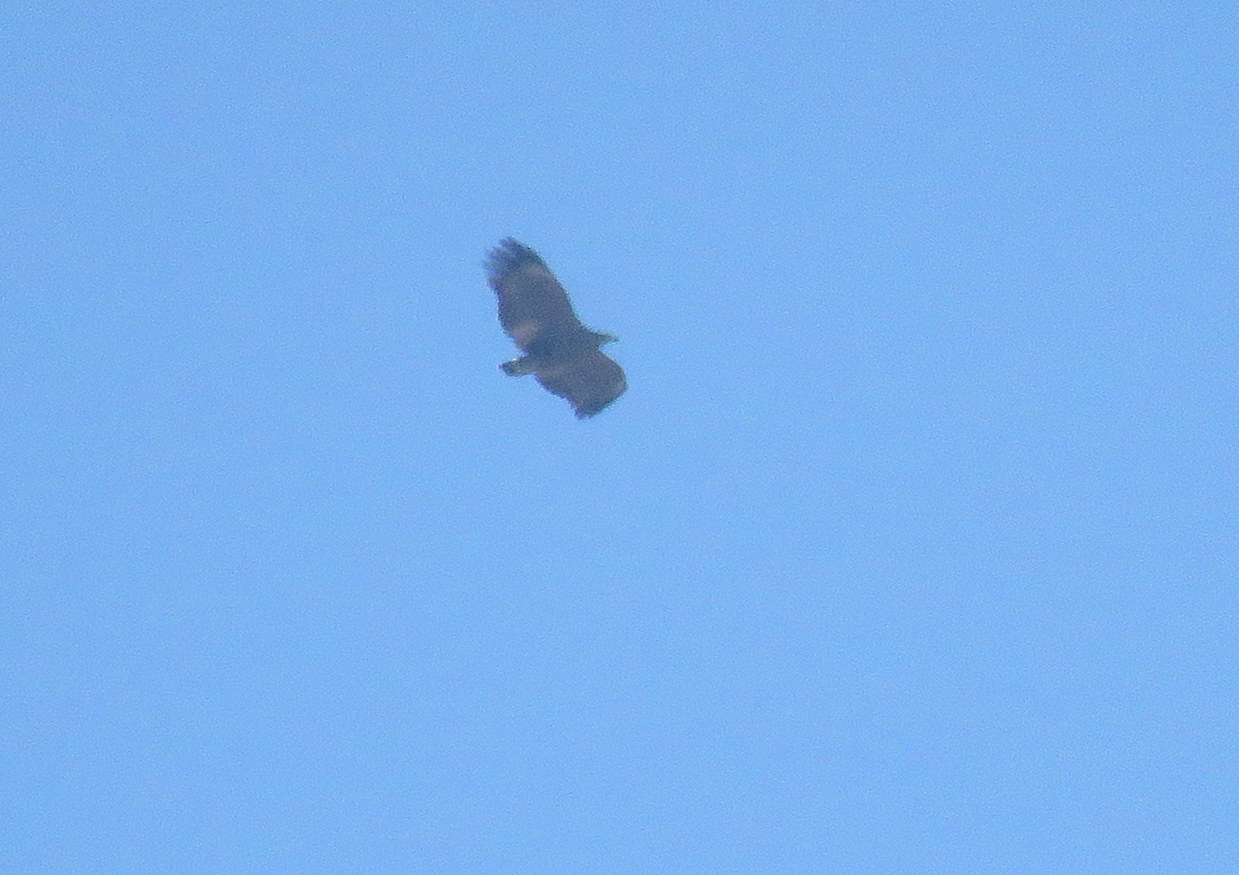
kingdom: Animalia
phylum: Chordata
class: Aves
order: Accipitriformes
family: Accipitridae
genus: Harpyhaliaetus
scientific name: Harpyhaliaetus coronatus
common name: Crowned solitary eagle
